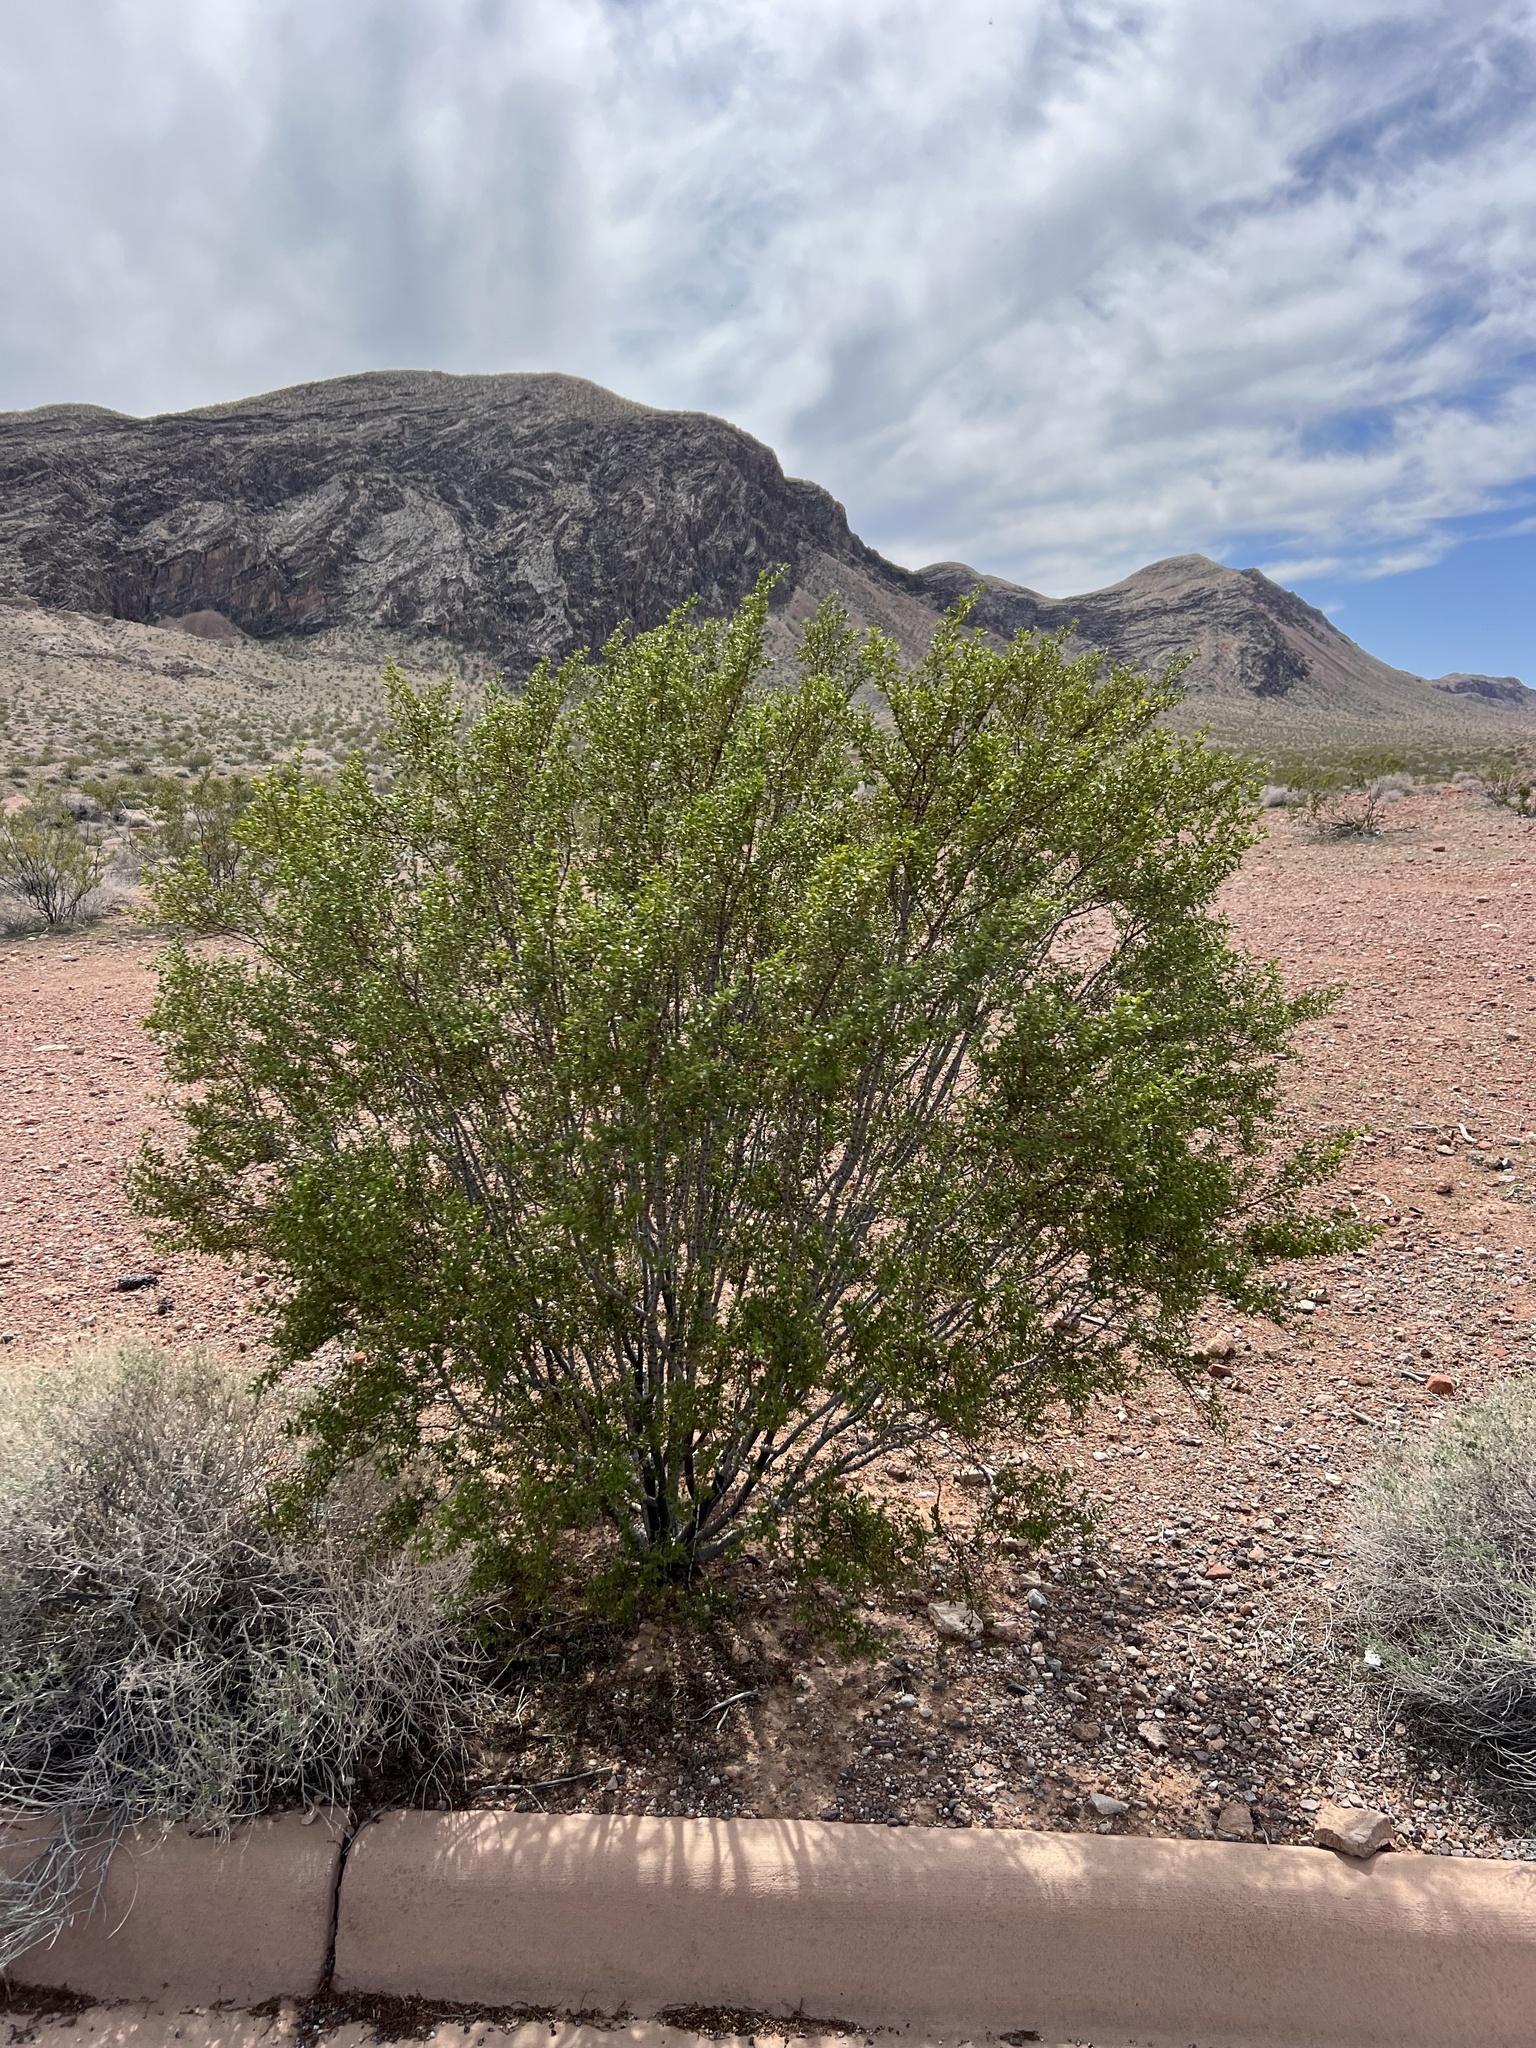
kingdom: Plantae
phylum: Tracheophyta
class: Magnoliopsida
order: Zygophyllales
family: Zygophyllaceae
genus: Larrea
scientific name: Larrea tridentata
